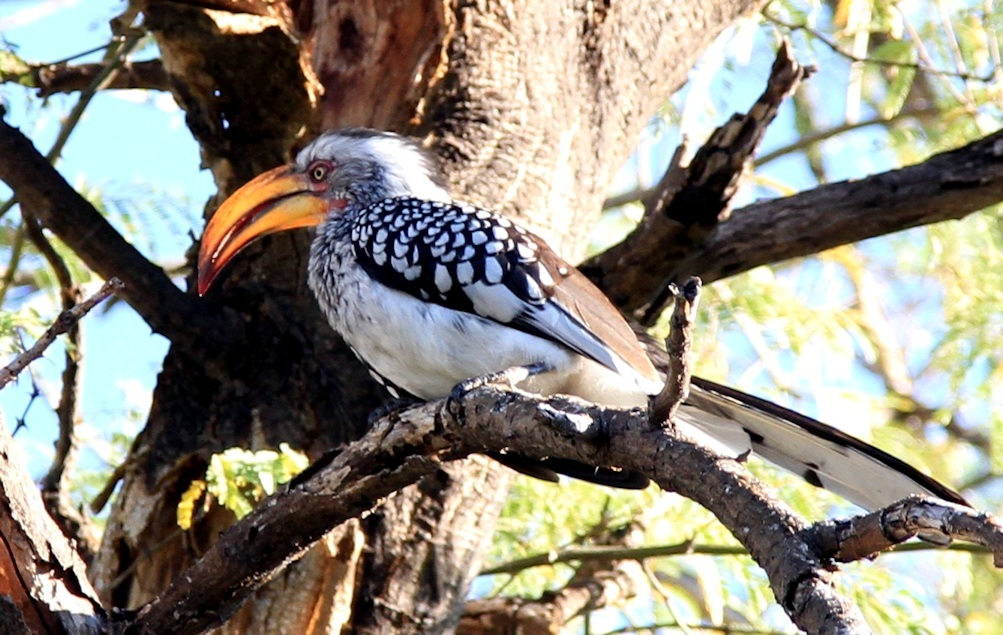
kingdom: Animalia
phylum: Chordata
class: Aves
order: Bucerotiformes
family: Bucerotidae
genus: Tockus
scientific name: Tockus leucomelas
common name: Southern yellow-billed hornbill
